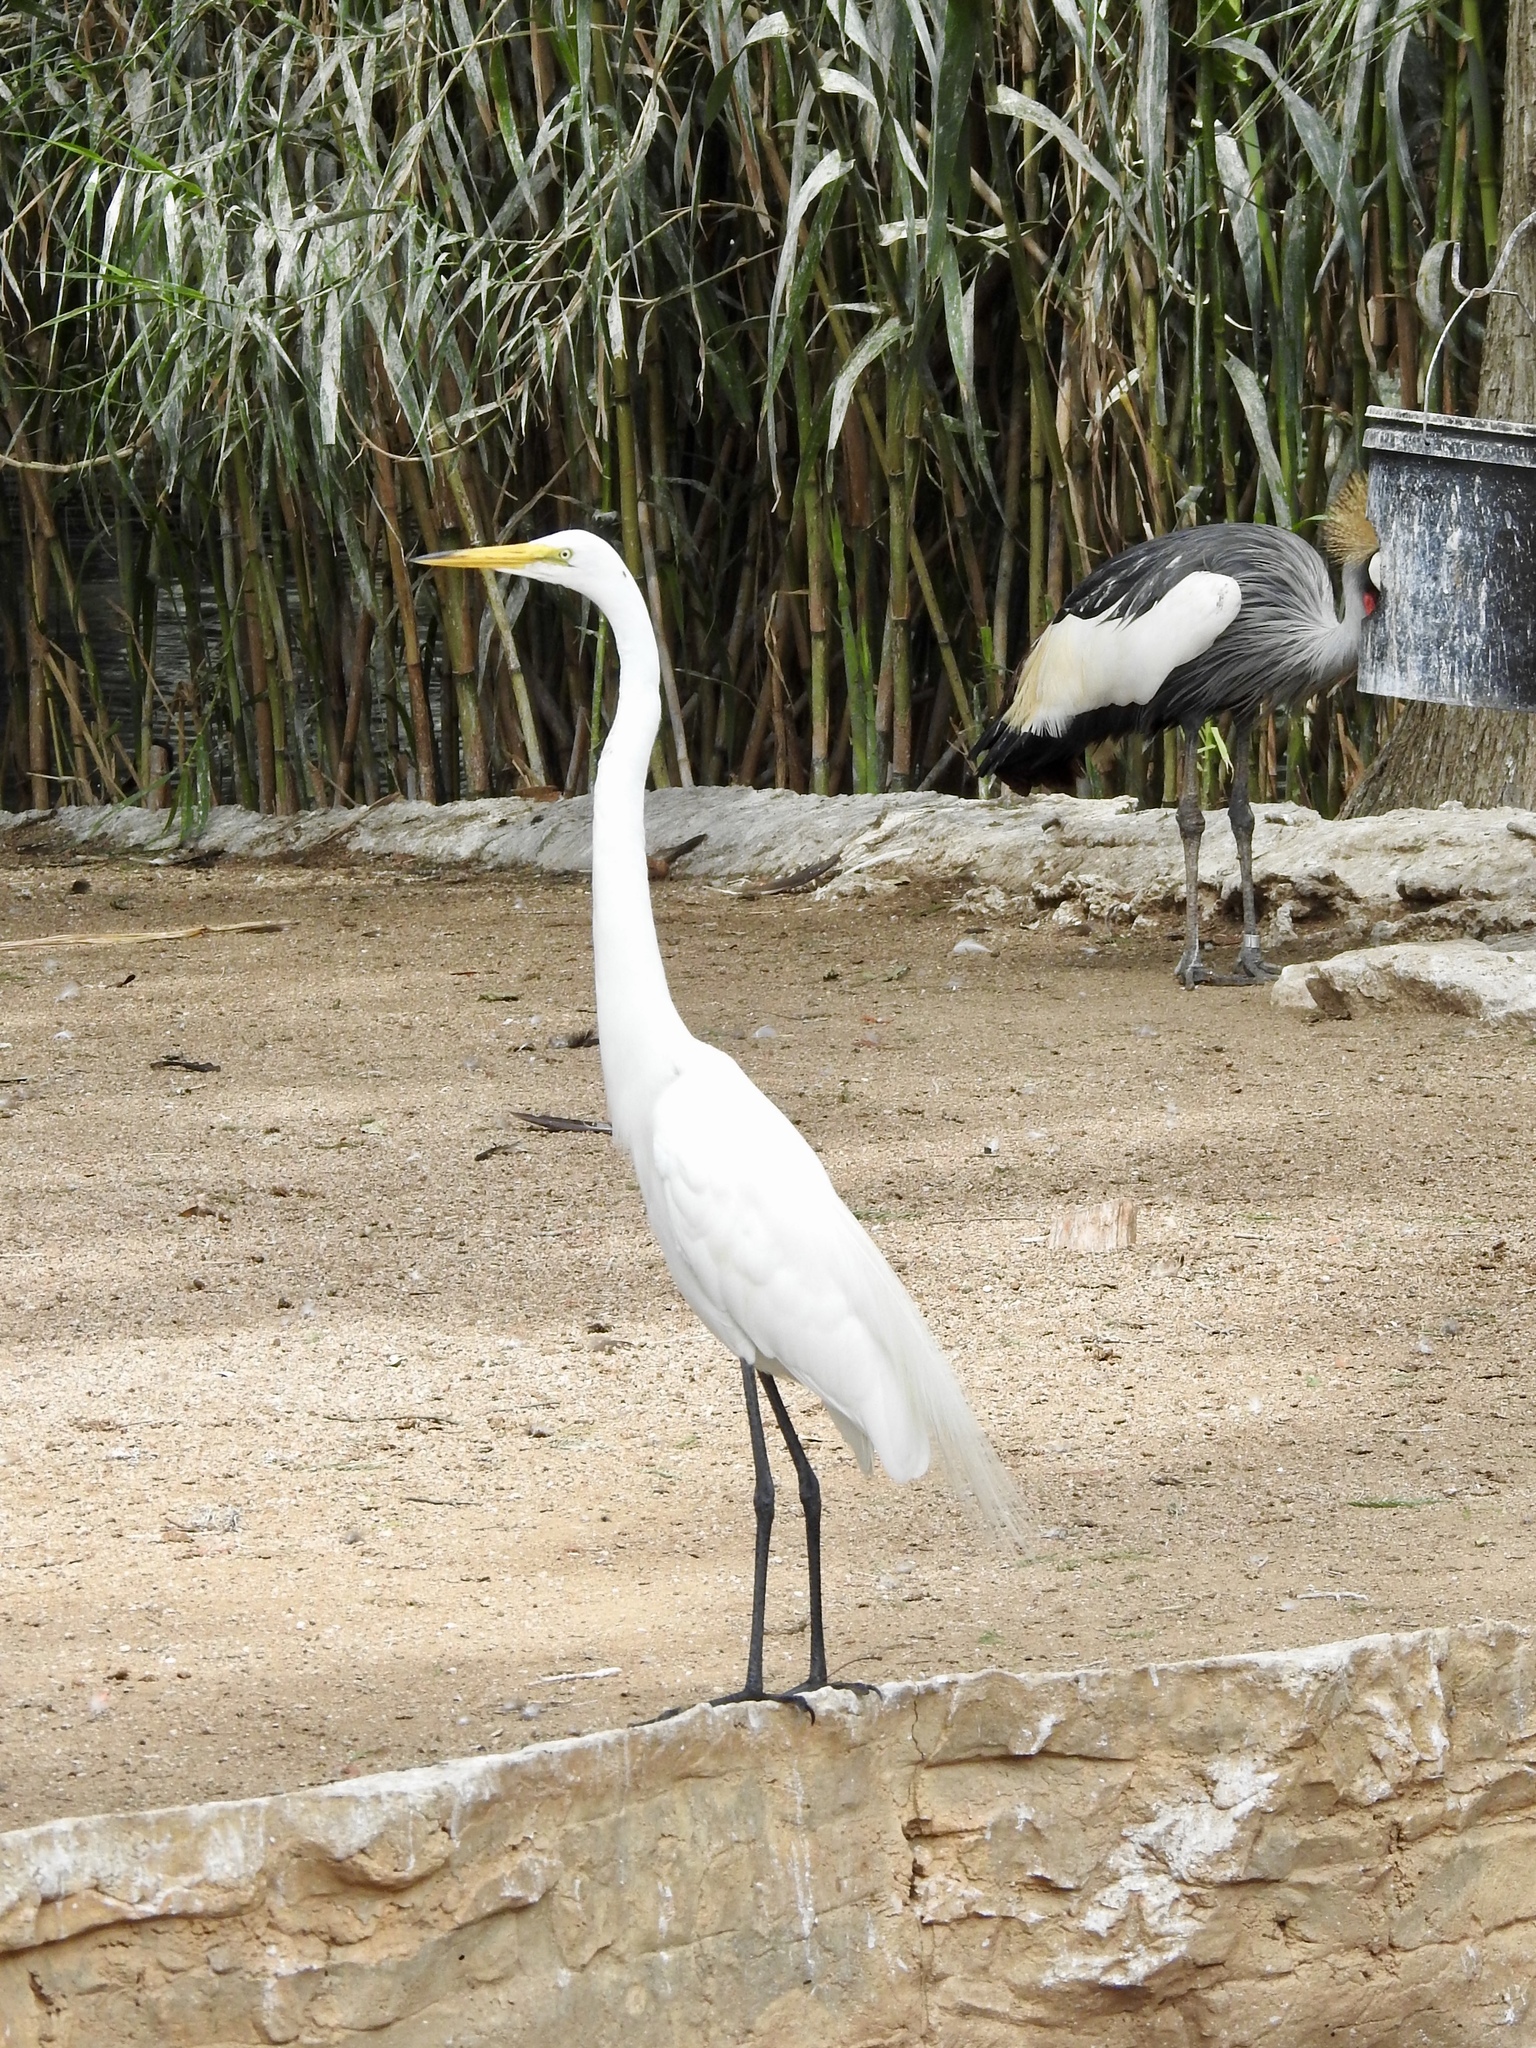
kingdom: Animalia
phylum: Chordata
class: Aves
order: Pelecaniformes
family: Ardeidae
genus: Ardea
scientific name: Ardea alba
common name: Great egret
